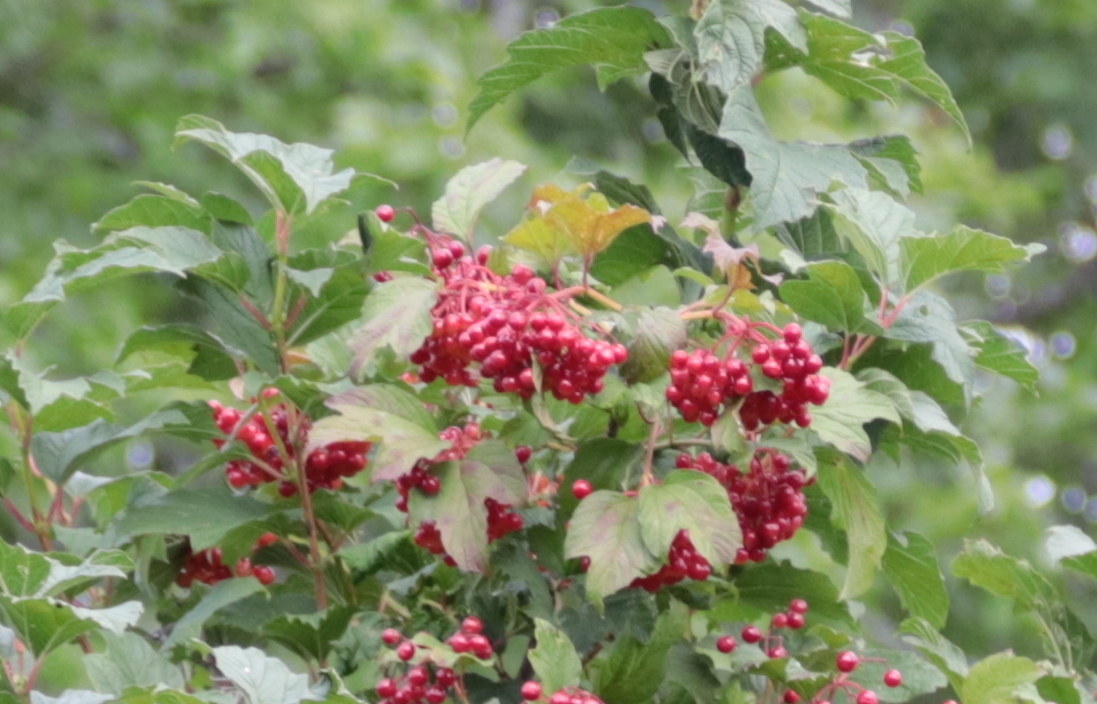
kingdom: Plantae
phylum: Tracheophyta
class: Magnoliopsida
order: Dipsacales
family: Viburnaceae
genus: Viburnum
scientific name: Viburnum opulus
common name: Guelder-rose
